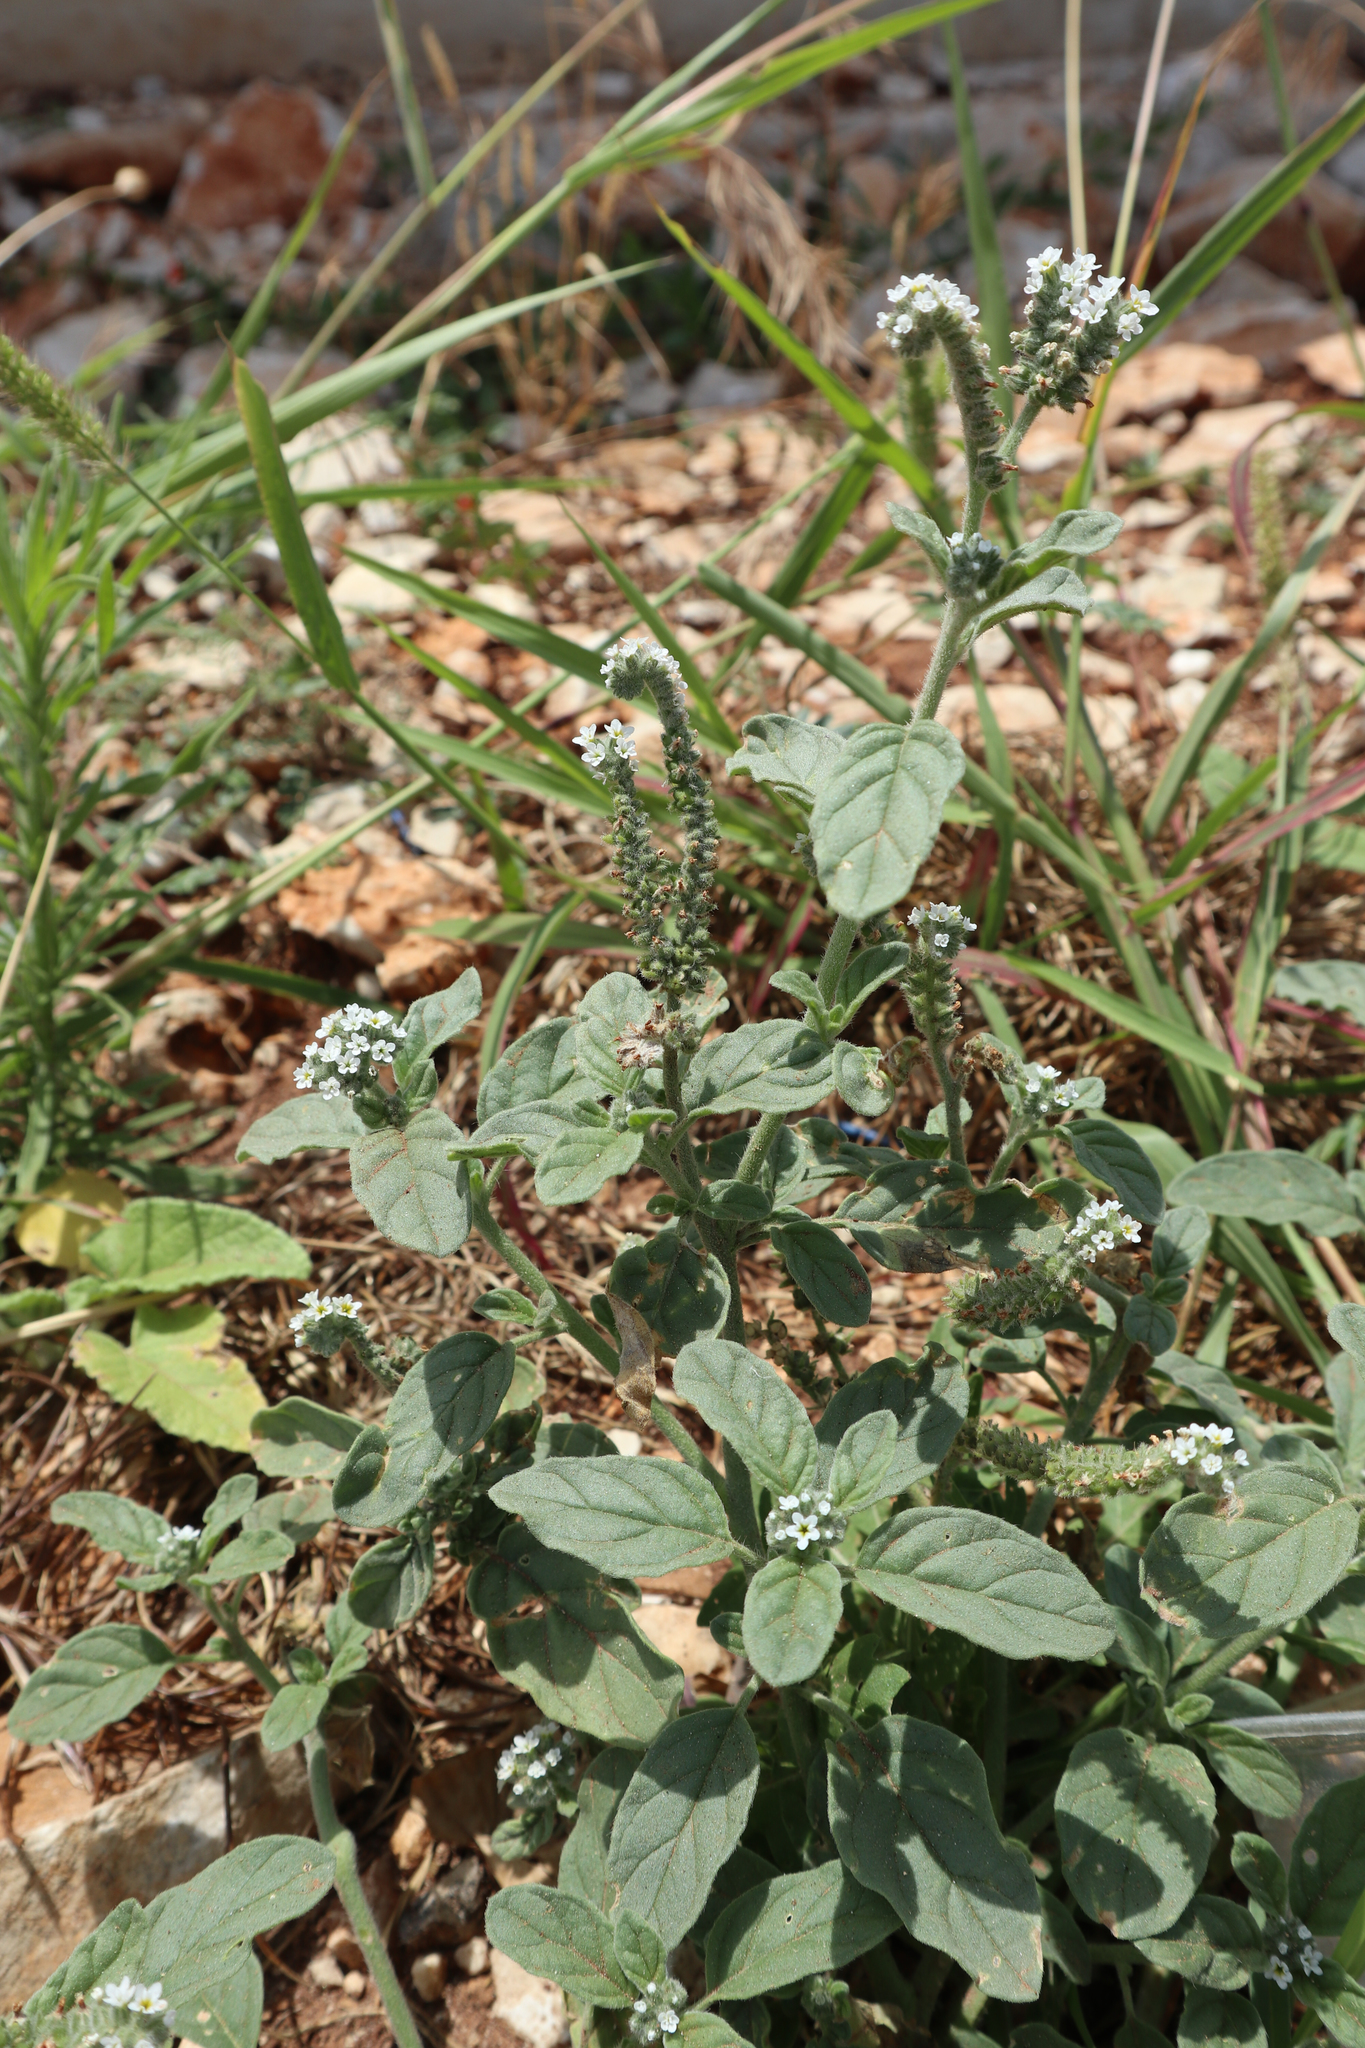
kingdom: Plantae
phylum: Tracheophyta
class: Magnoliopsida
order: Boraginales
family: Heliotropiaceae
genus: Heliotropium
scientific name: Heliotropium europaeum
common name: European heliotrope
